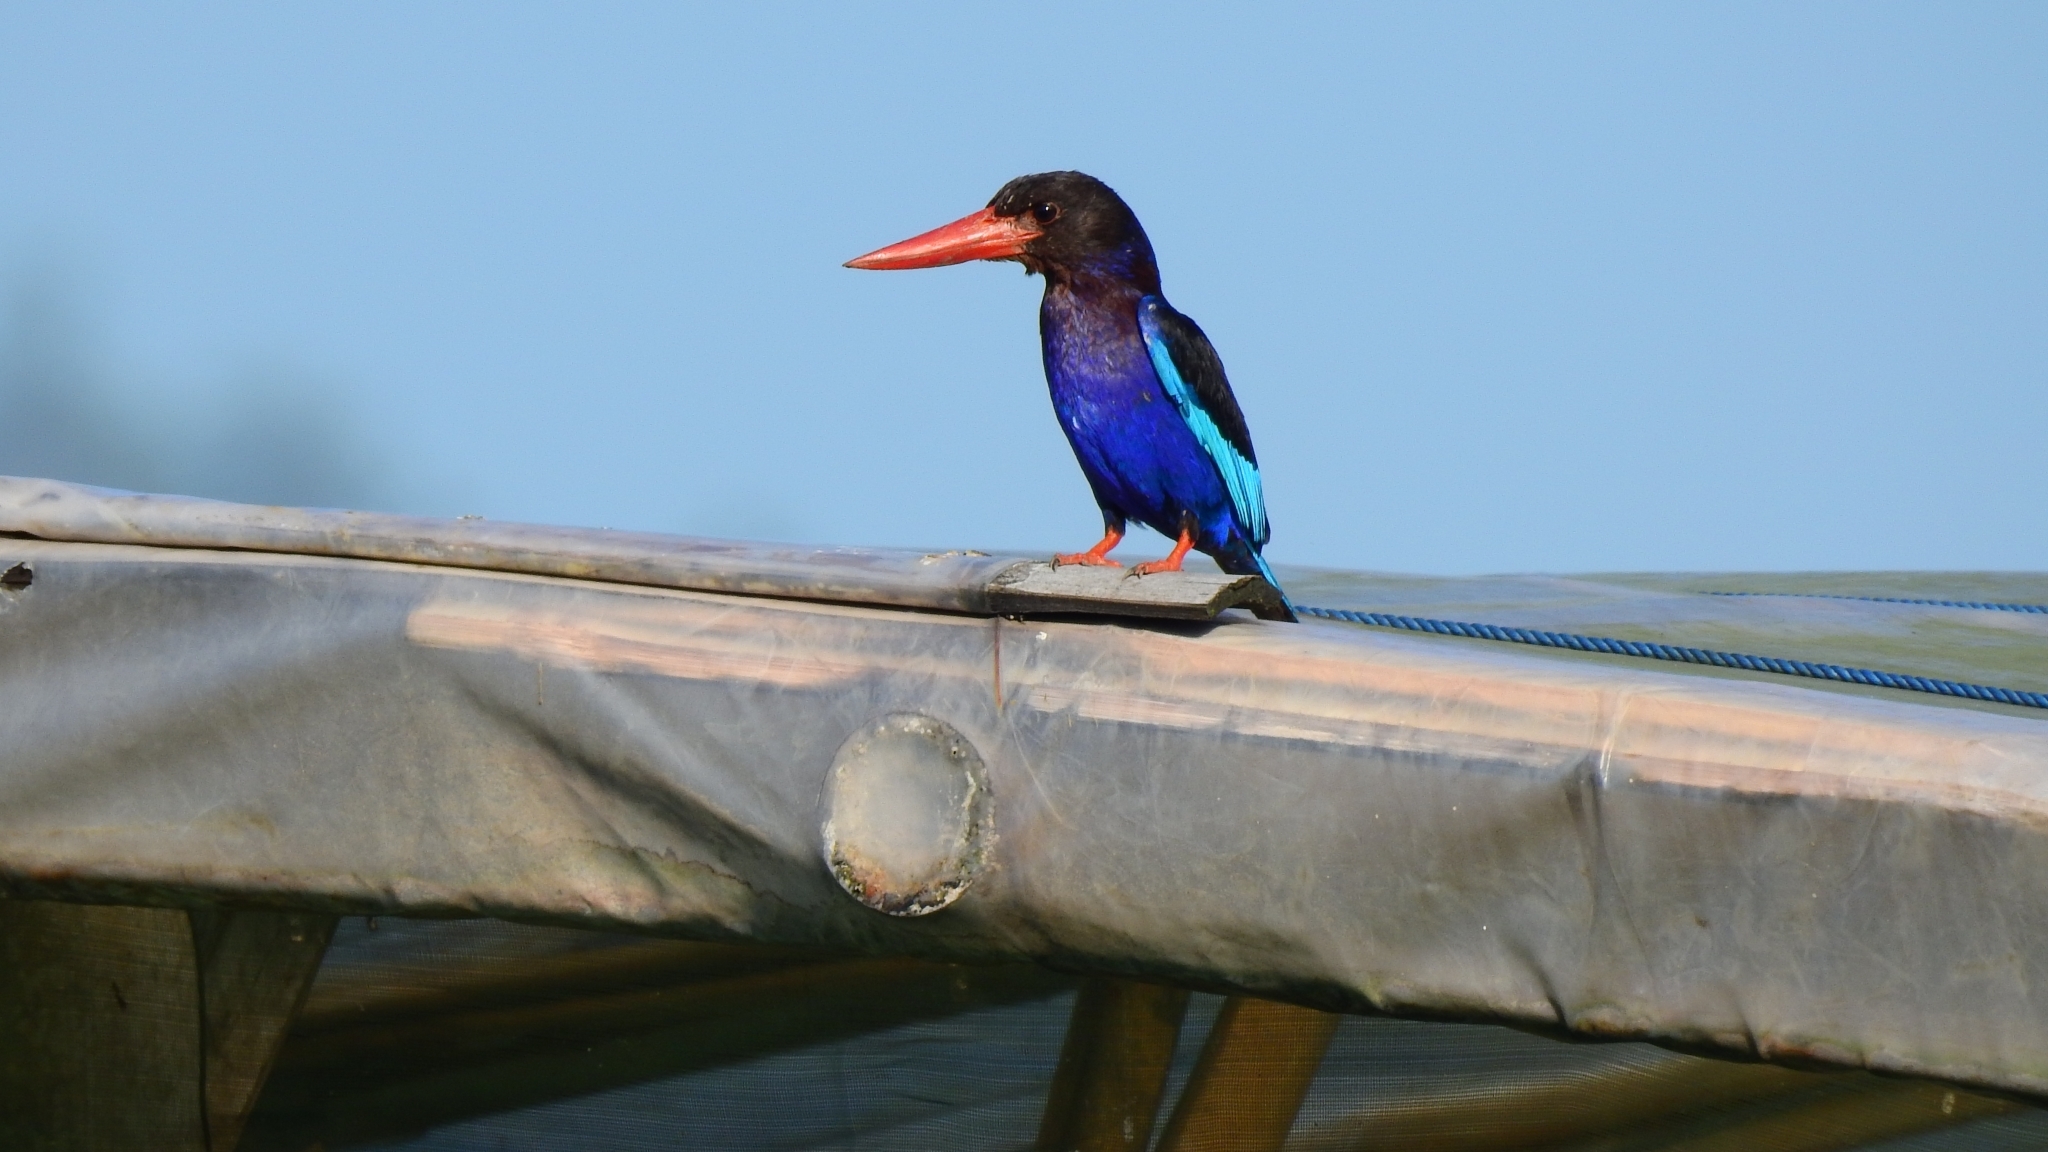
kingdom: Animalia
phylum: Chordata
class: Aves
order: Coraciiformes
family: Alcedinidae
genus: Halcyon
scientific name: Halcyon cyanoventris
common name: Javan kingfisher
